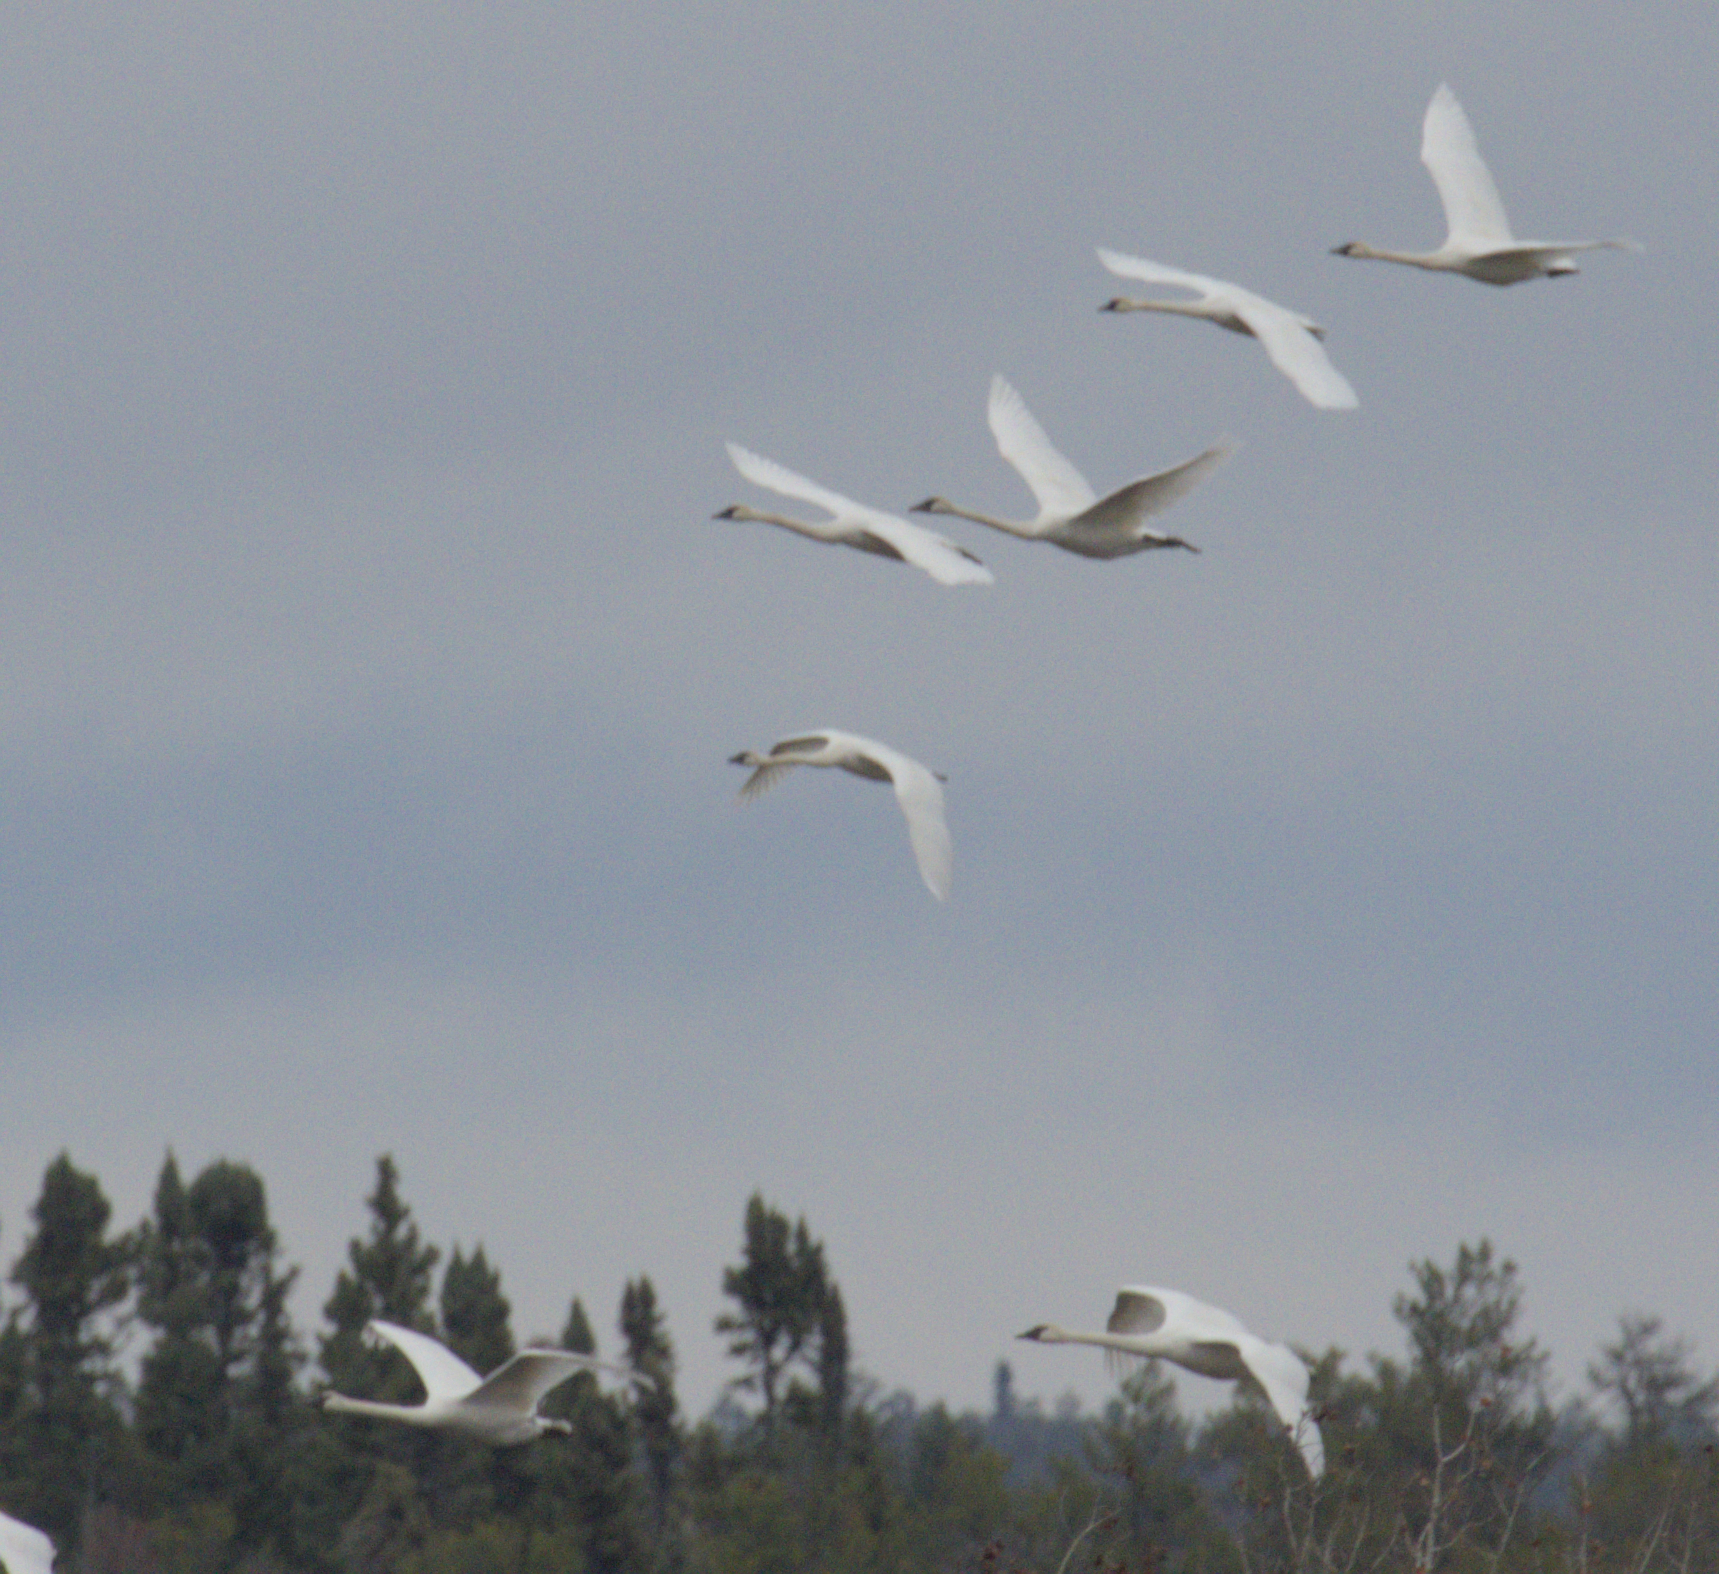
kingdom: Animalia
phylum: Chordata
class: Aves
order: Anseriformes
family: Anatidae
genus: Cygnus
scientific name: Cygnus buccinator
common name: Trumpeter swan
